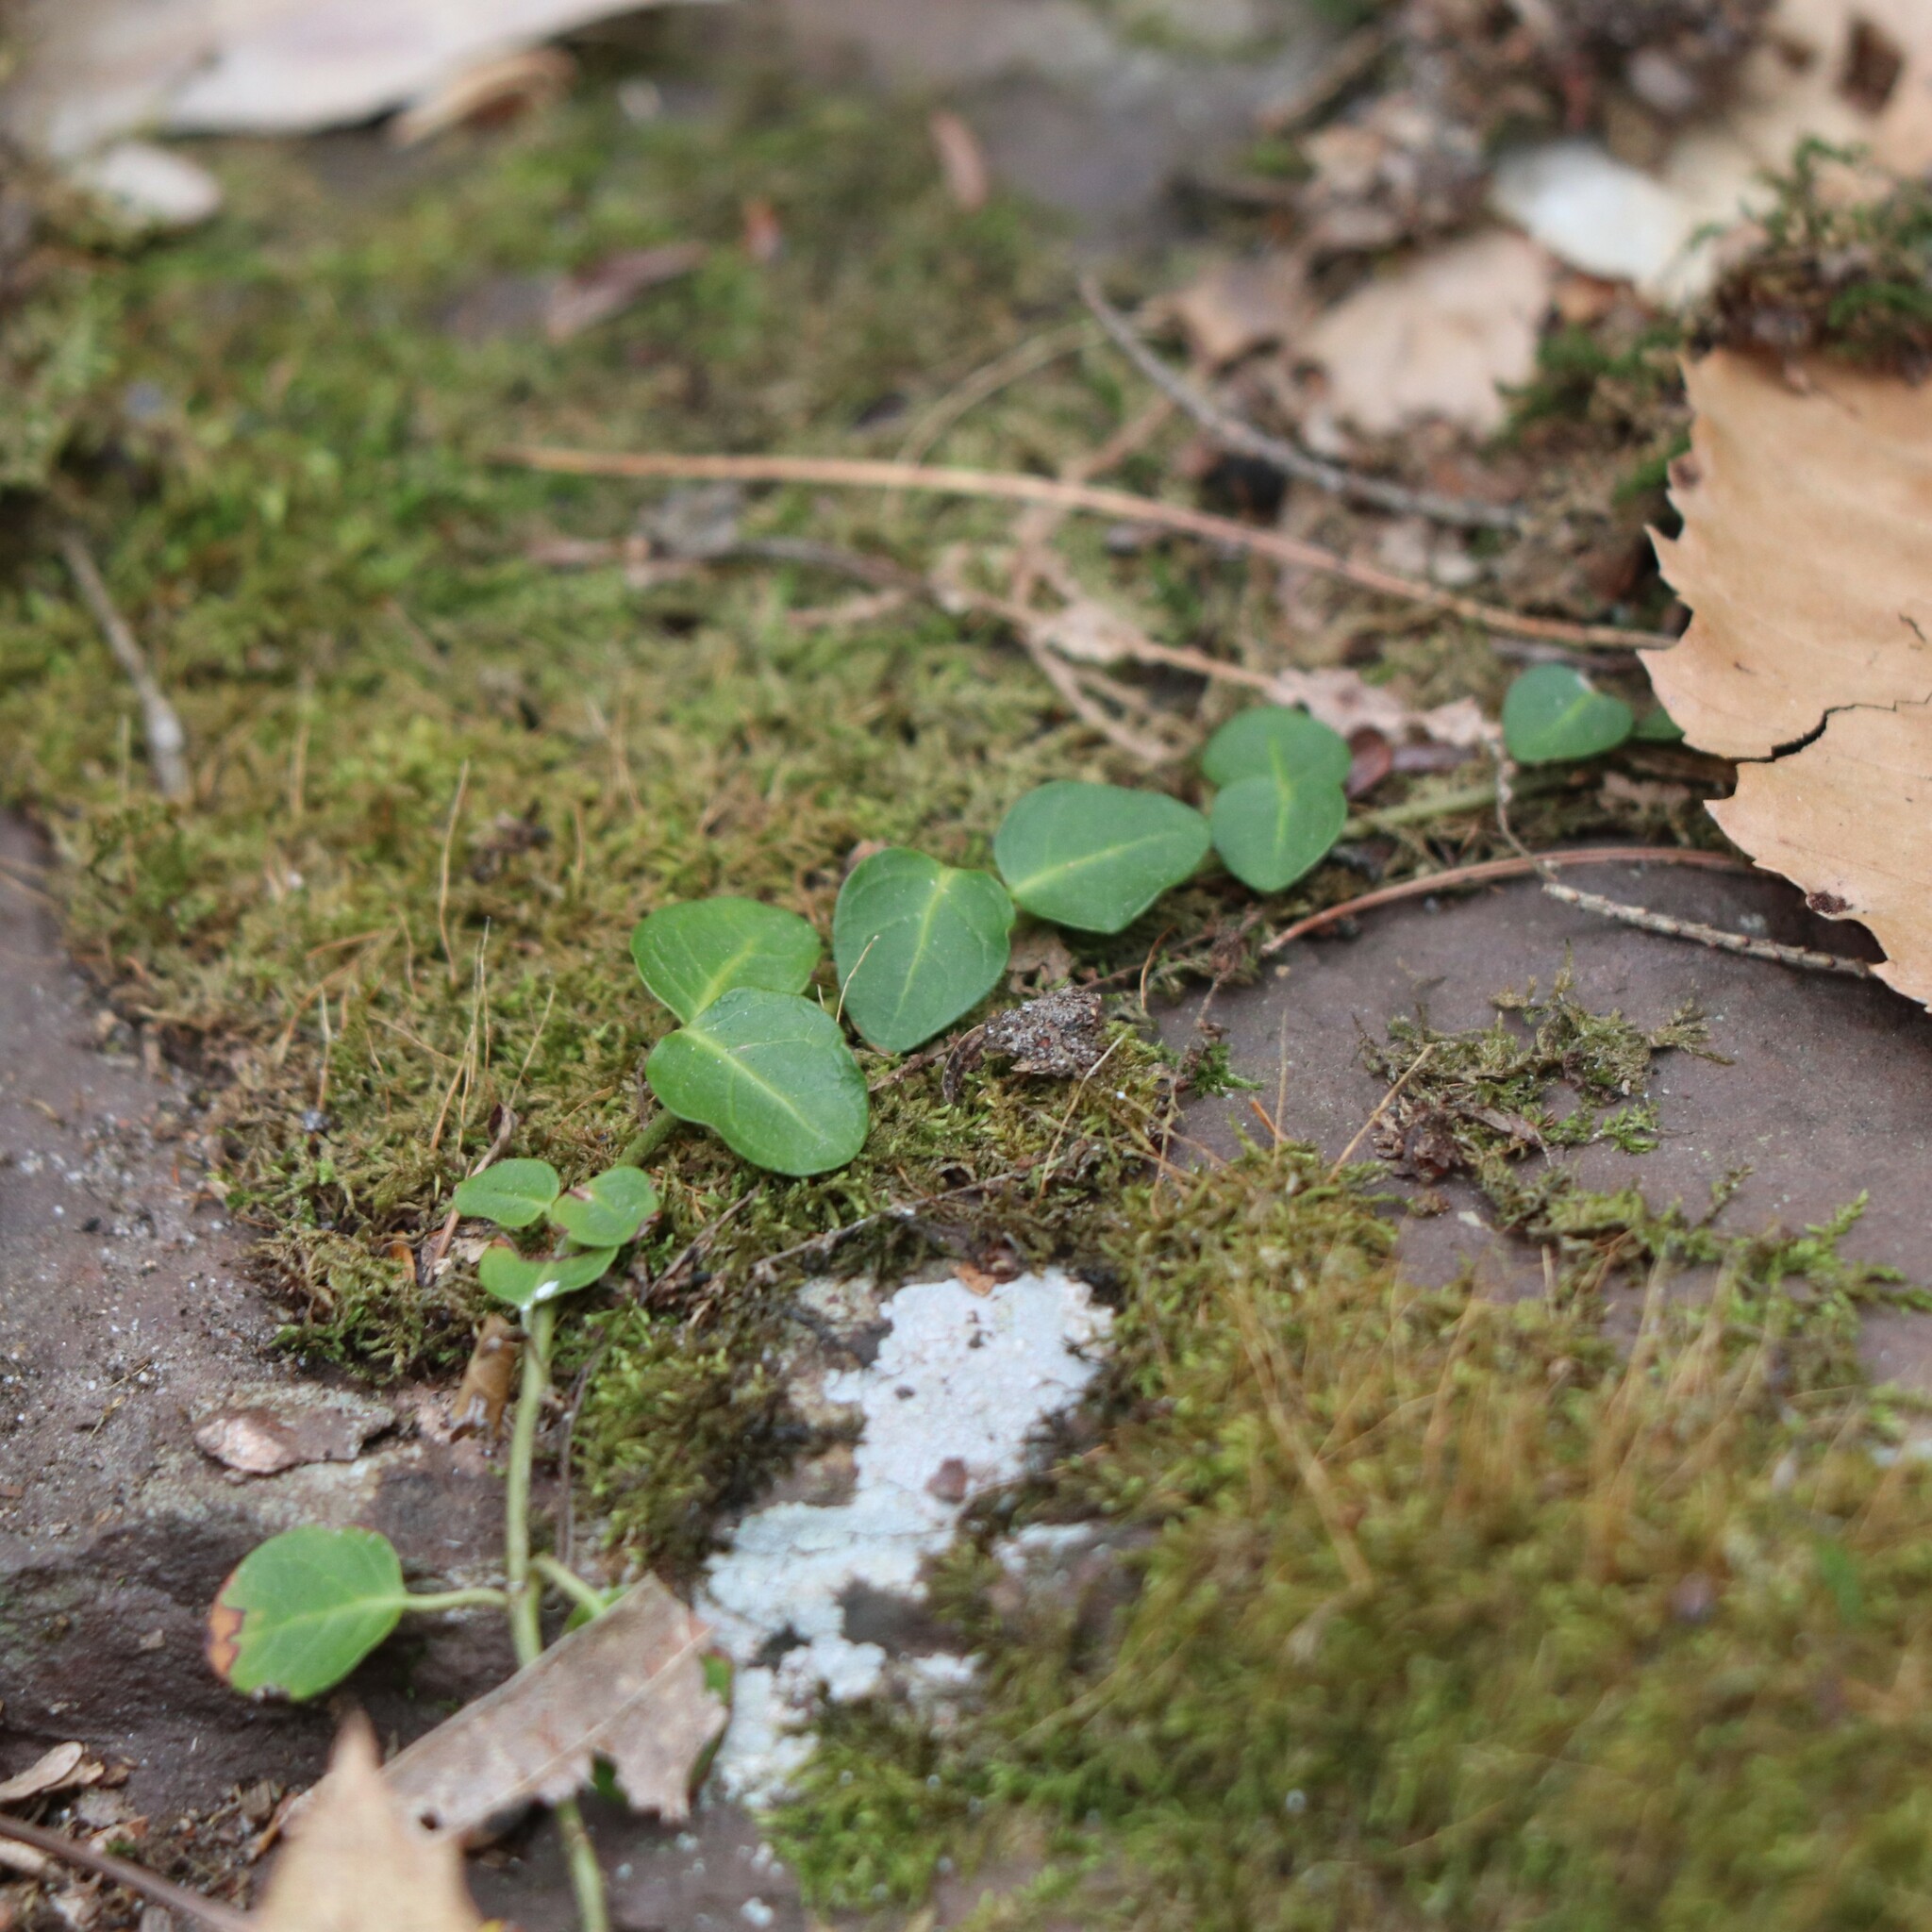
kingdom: Plantae
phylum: Tracheophyta
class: Magnoliopsida
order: Gentianales
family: Rubiaceae
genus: Mitchella
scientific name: Mitchella repens
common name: Partridge-berry
